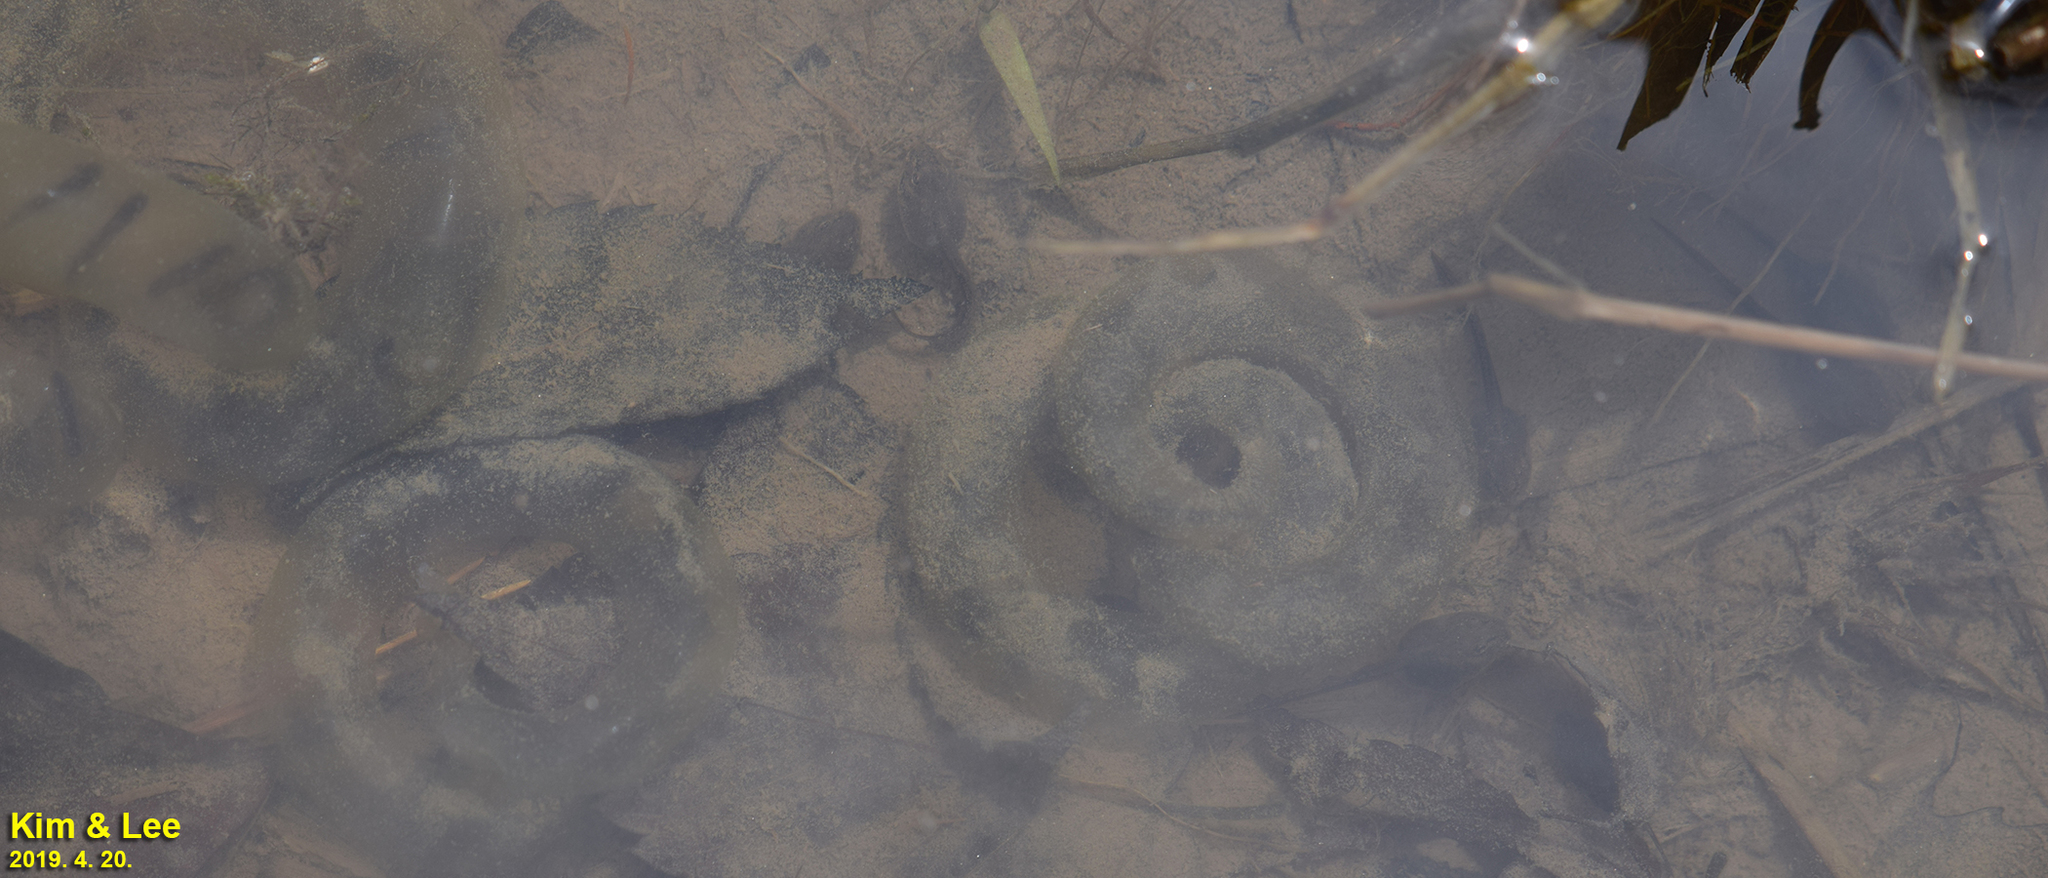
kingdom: Animalia
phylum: Chordata
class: Amphibia
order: Caudata
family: Hynobiidae
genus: Hynobius
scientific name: Hynobius leechii
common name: Gensan salamander
